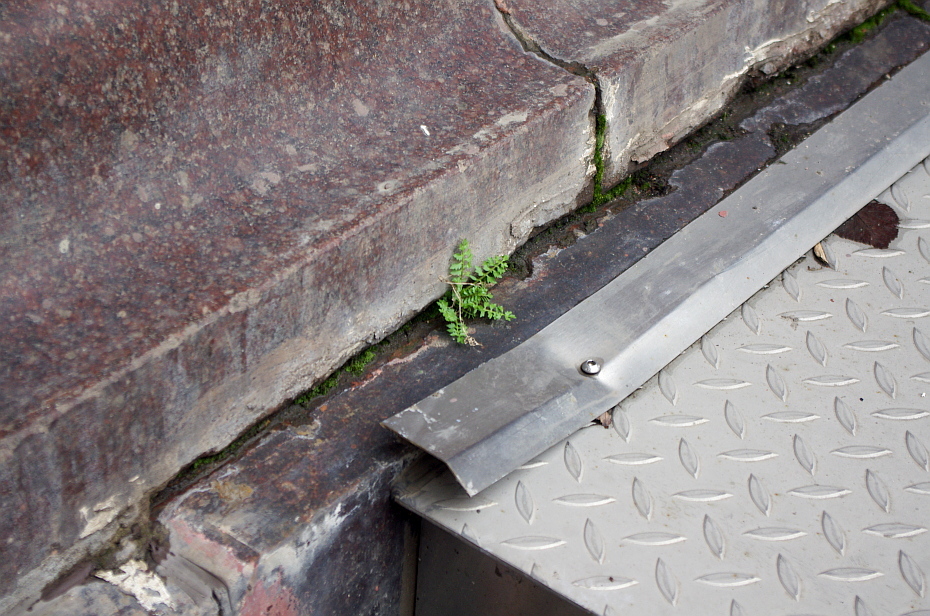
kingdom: Plantae
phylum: Tracheophyta
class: Magnoliopsida
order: Brassicales
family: Brassicaceae
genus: Rorippa
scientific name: Rorippa palustris
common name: Marsh yellow-cress
